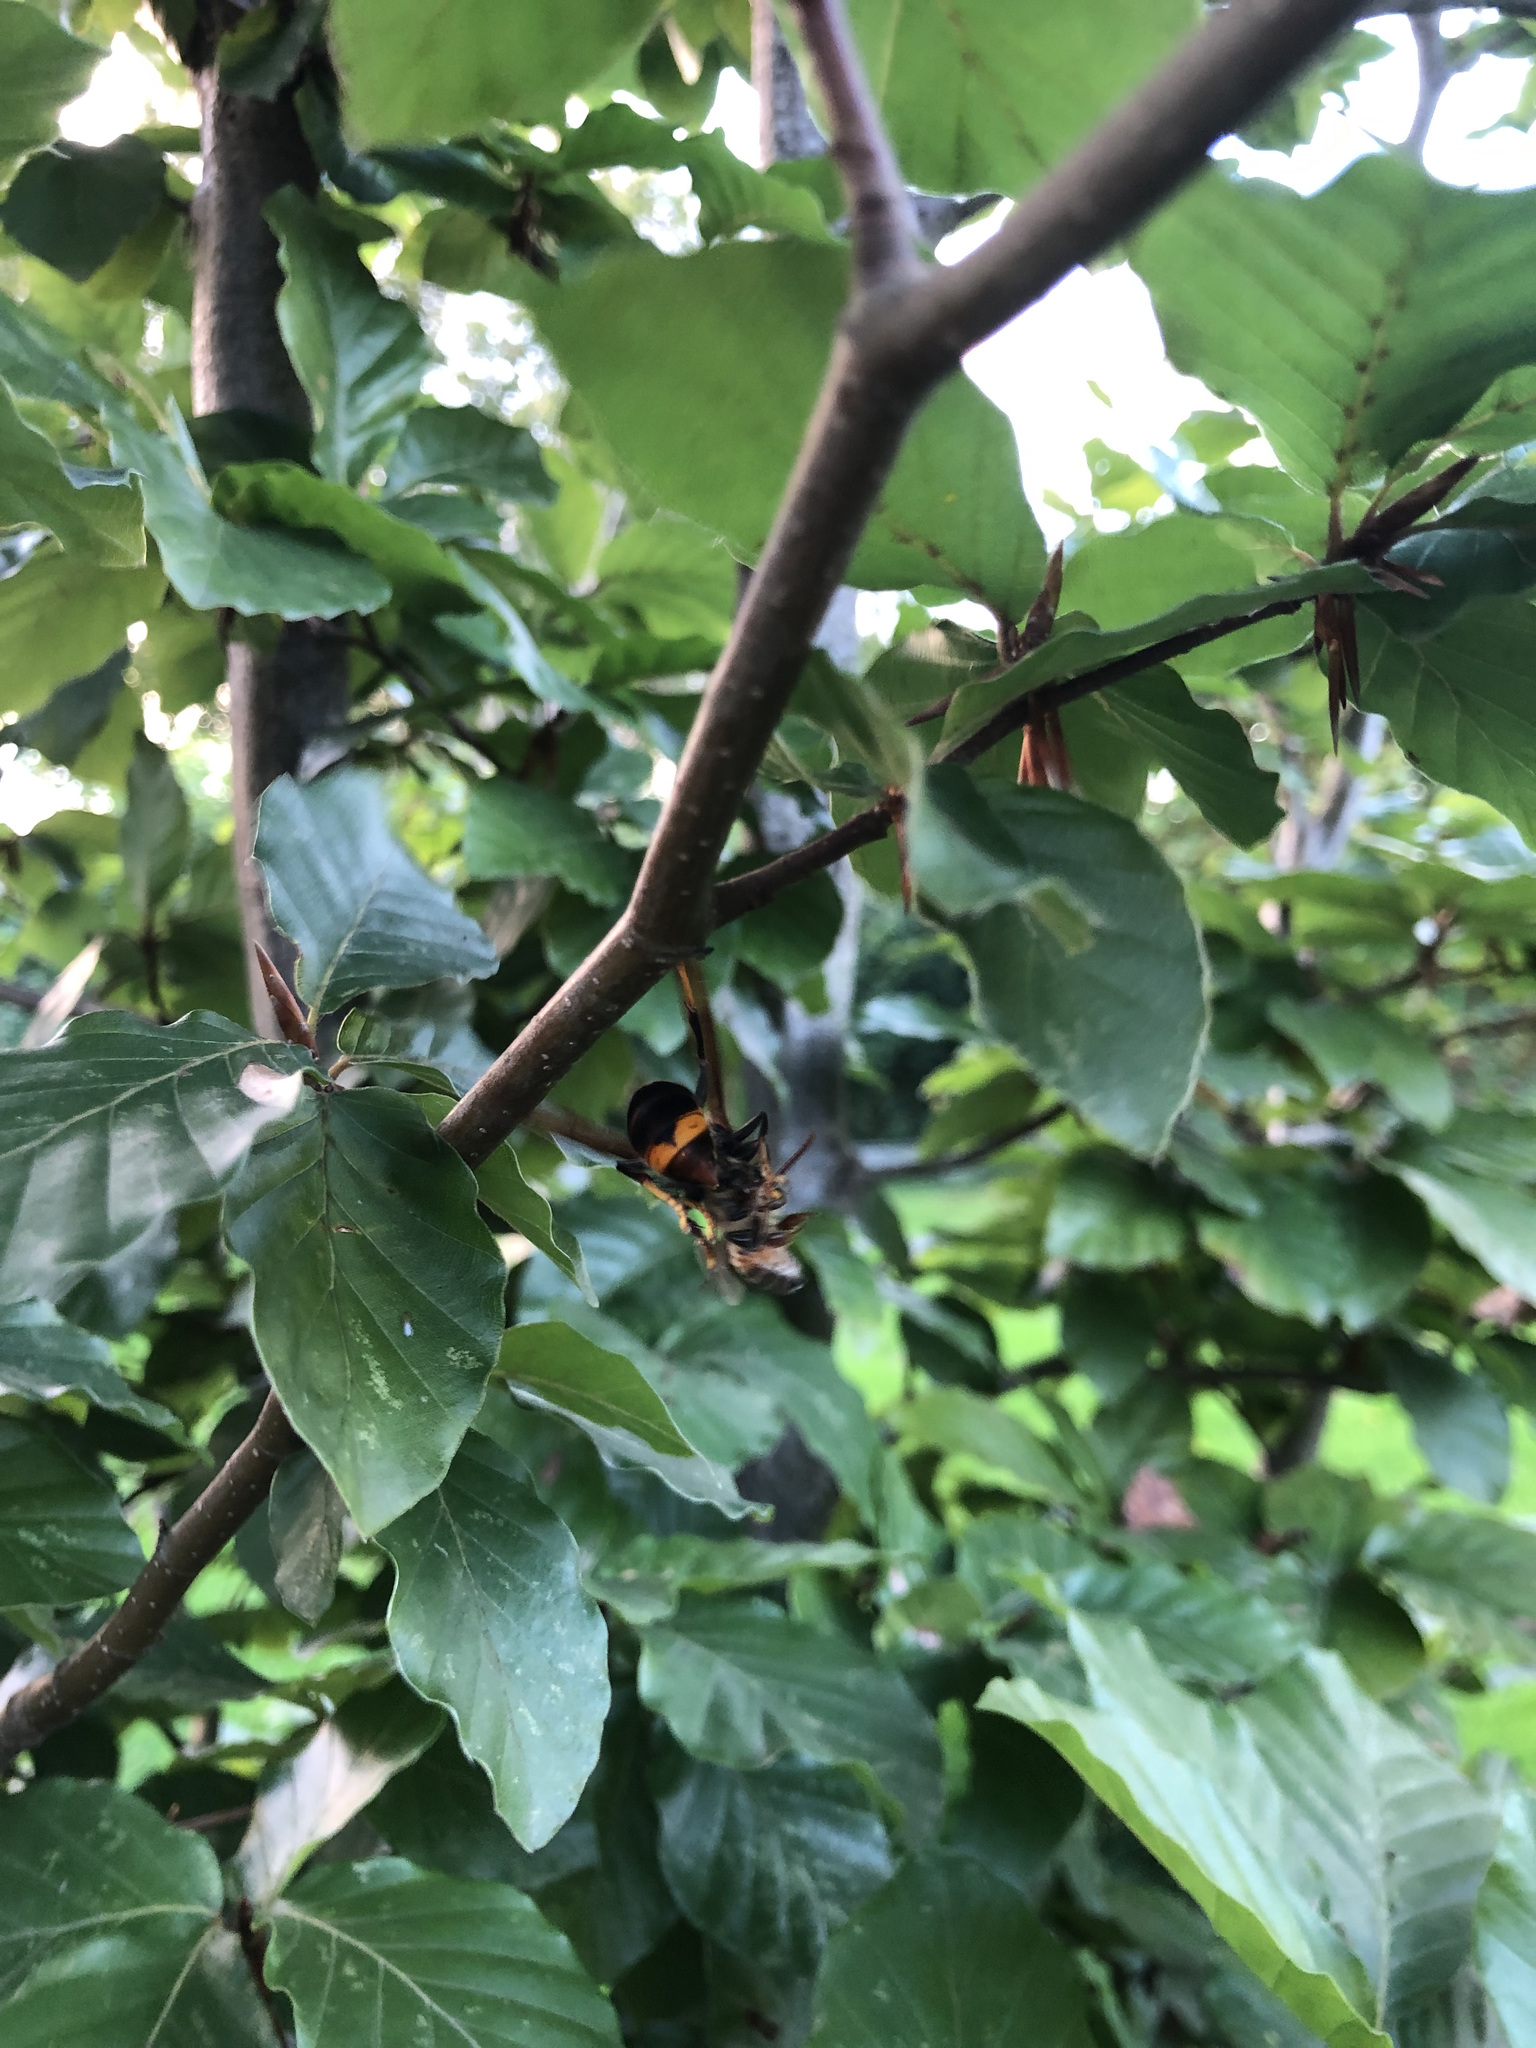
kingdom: Animalia
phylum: Arthropoda
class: Insecta
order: Hymenoptera
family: Vespidae
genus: Vespa
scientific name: Vespa velutina
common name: Asian hornet
